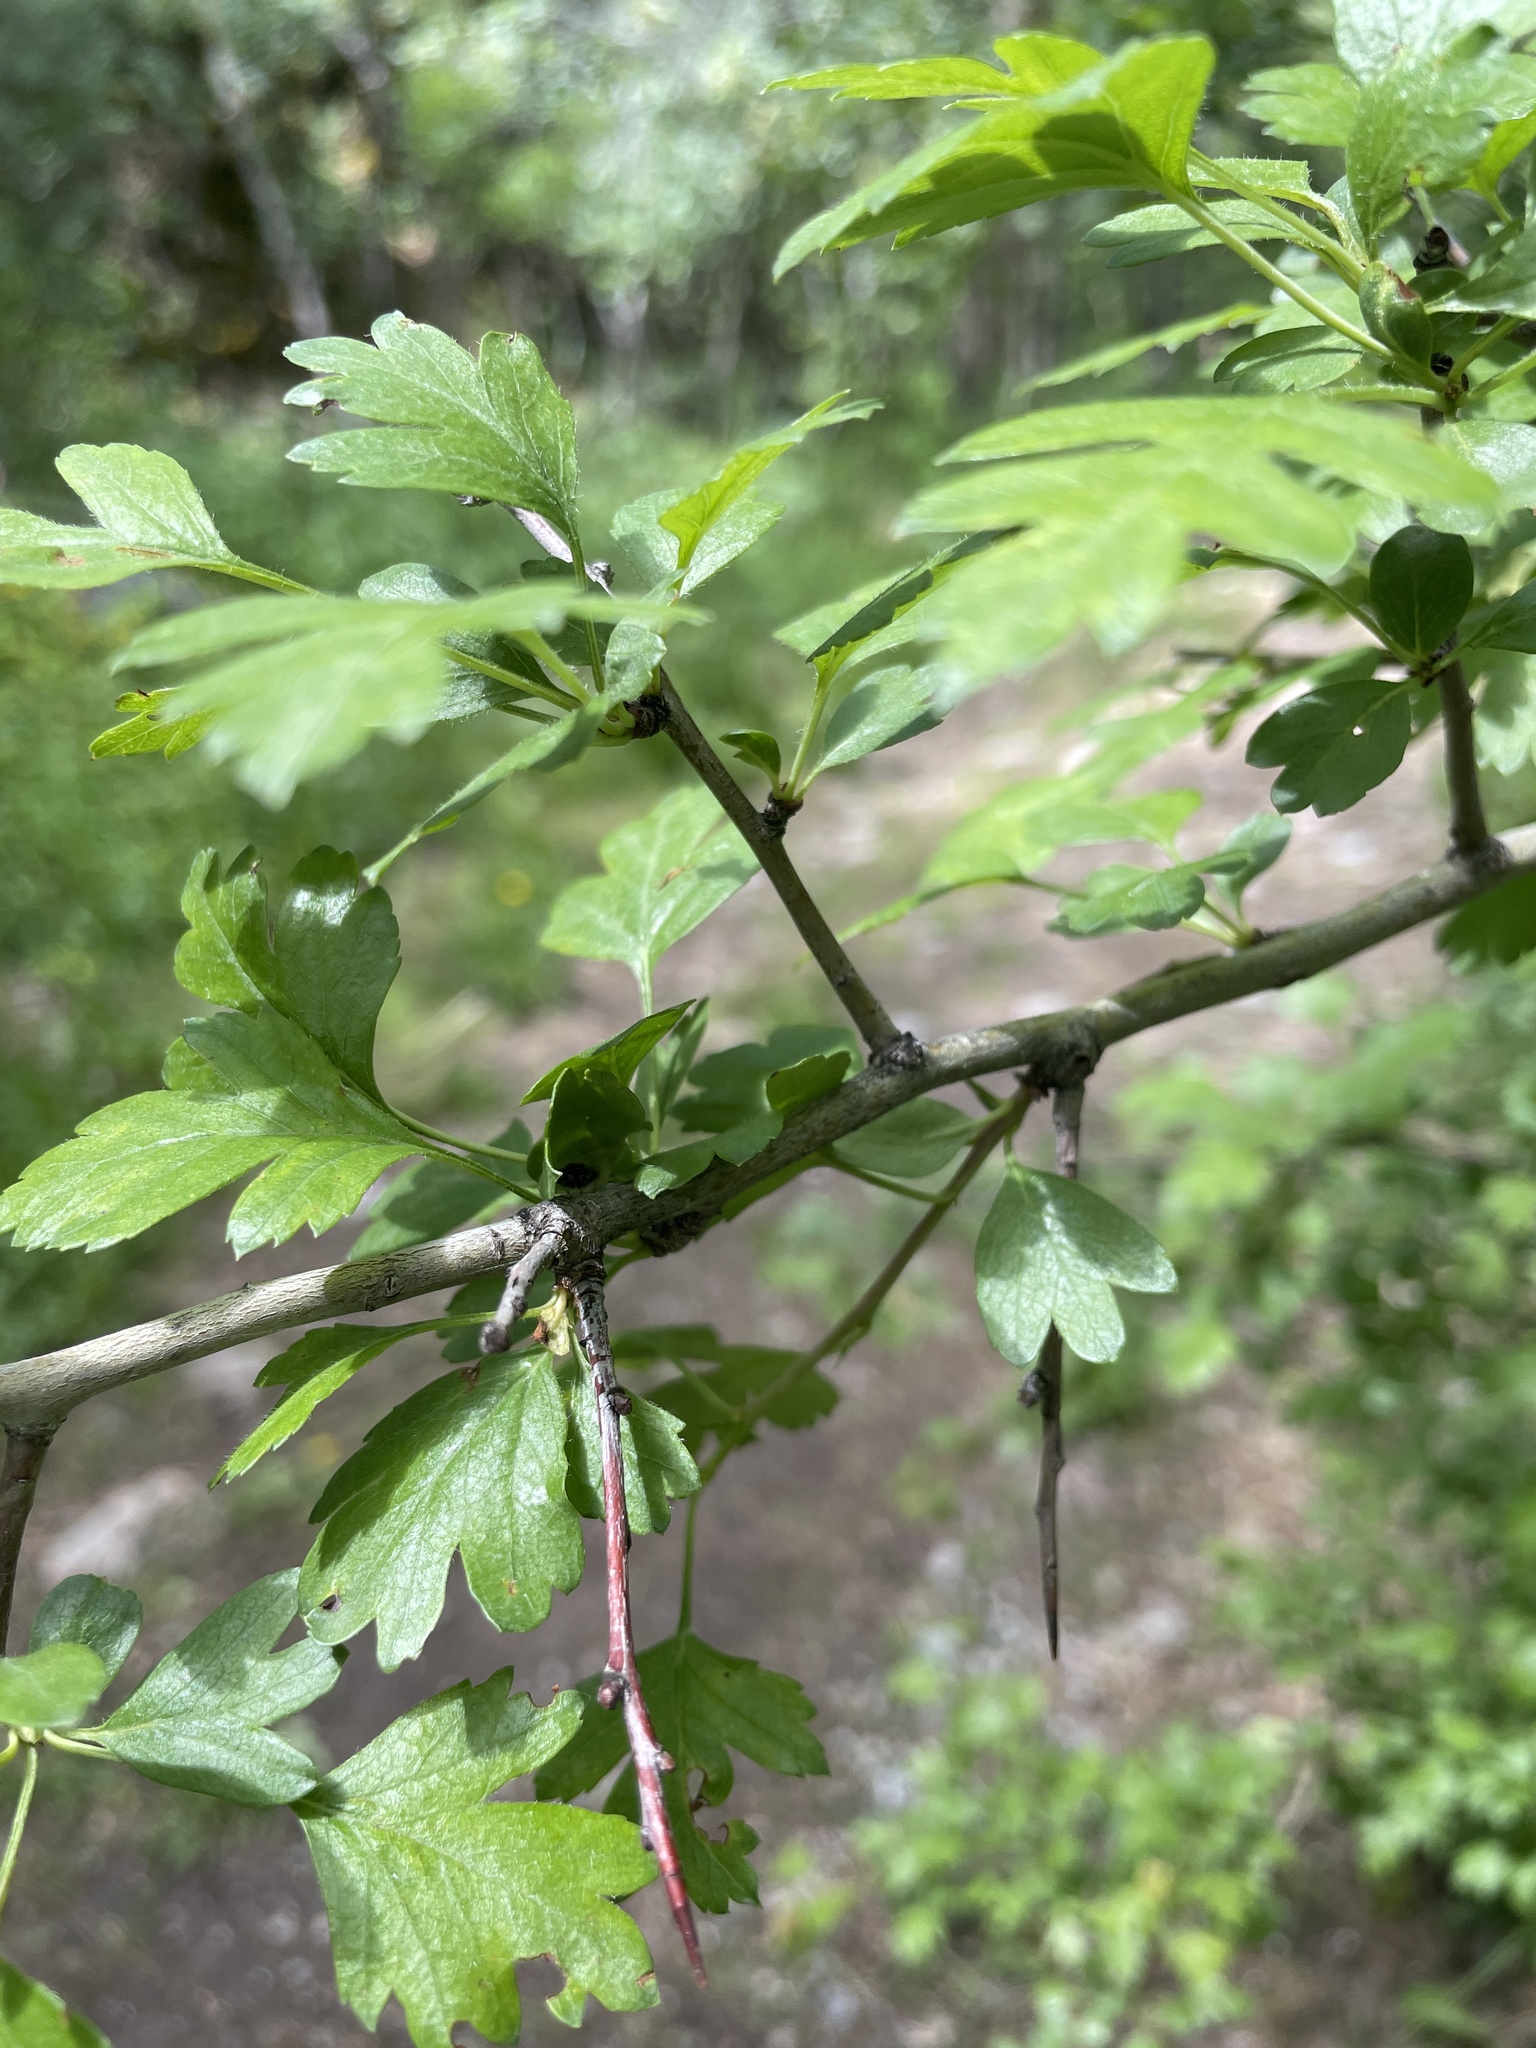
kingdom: Plantae
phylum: Tracheophyta
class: Magnoliopsida
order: Rosales
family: Rosaceae
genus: Crataegus
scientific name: Crataegus monogyna
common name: Hawthorn
